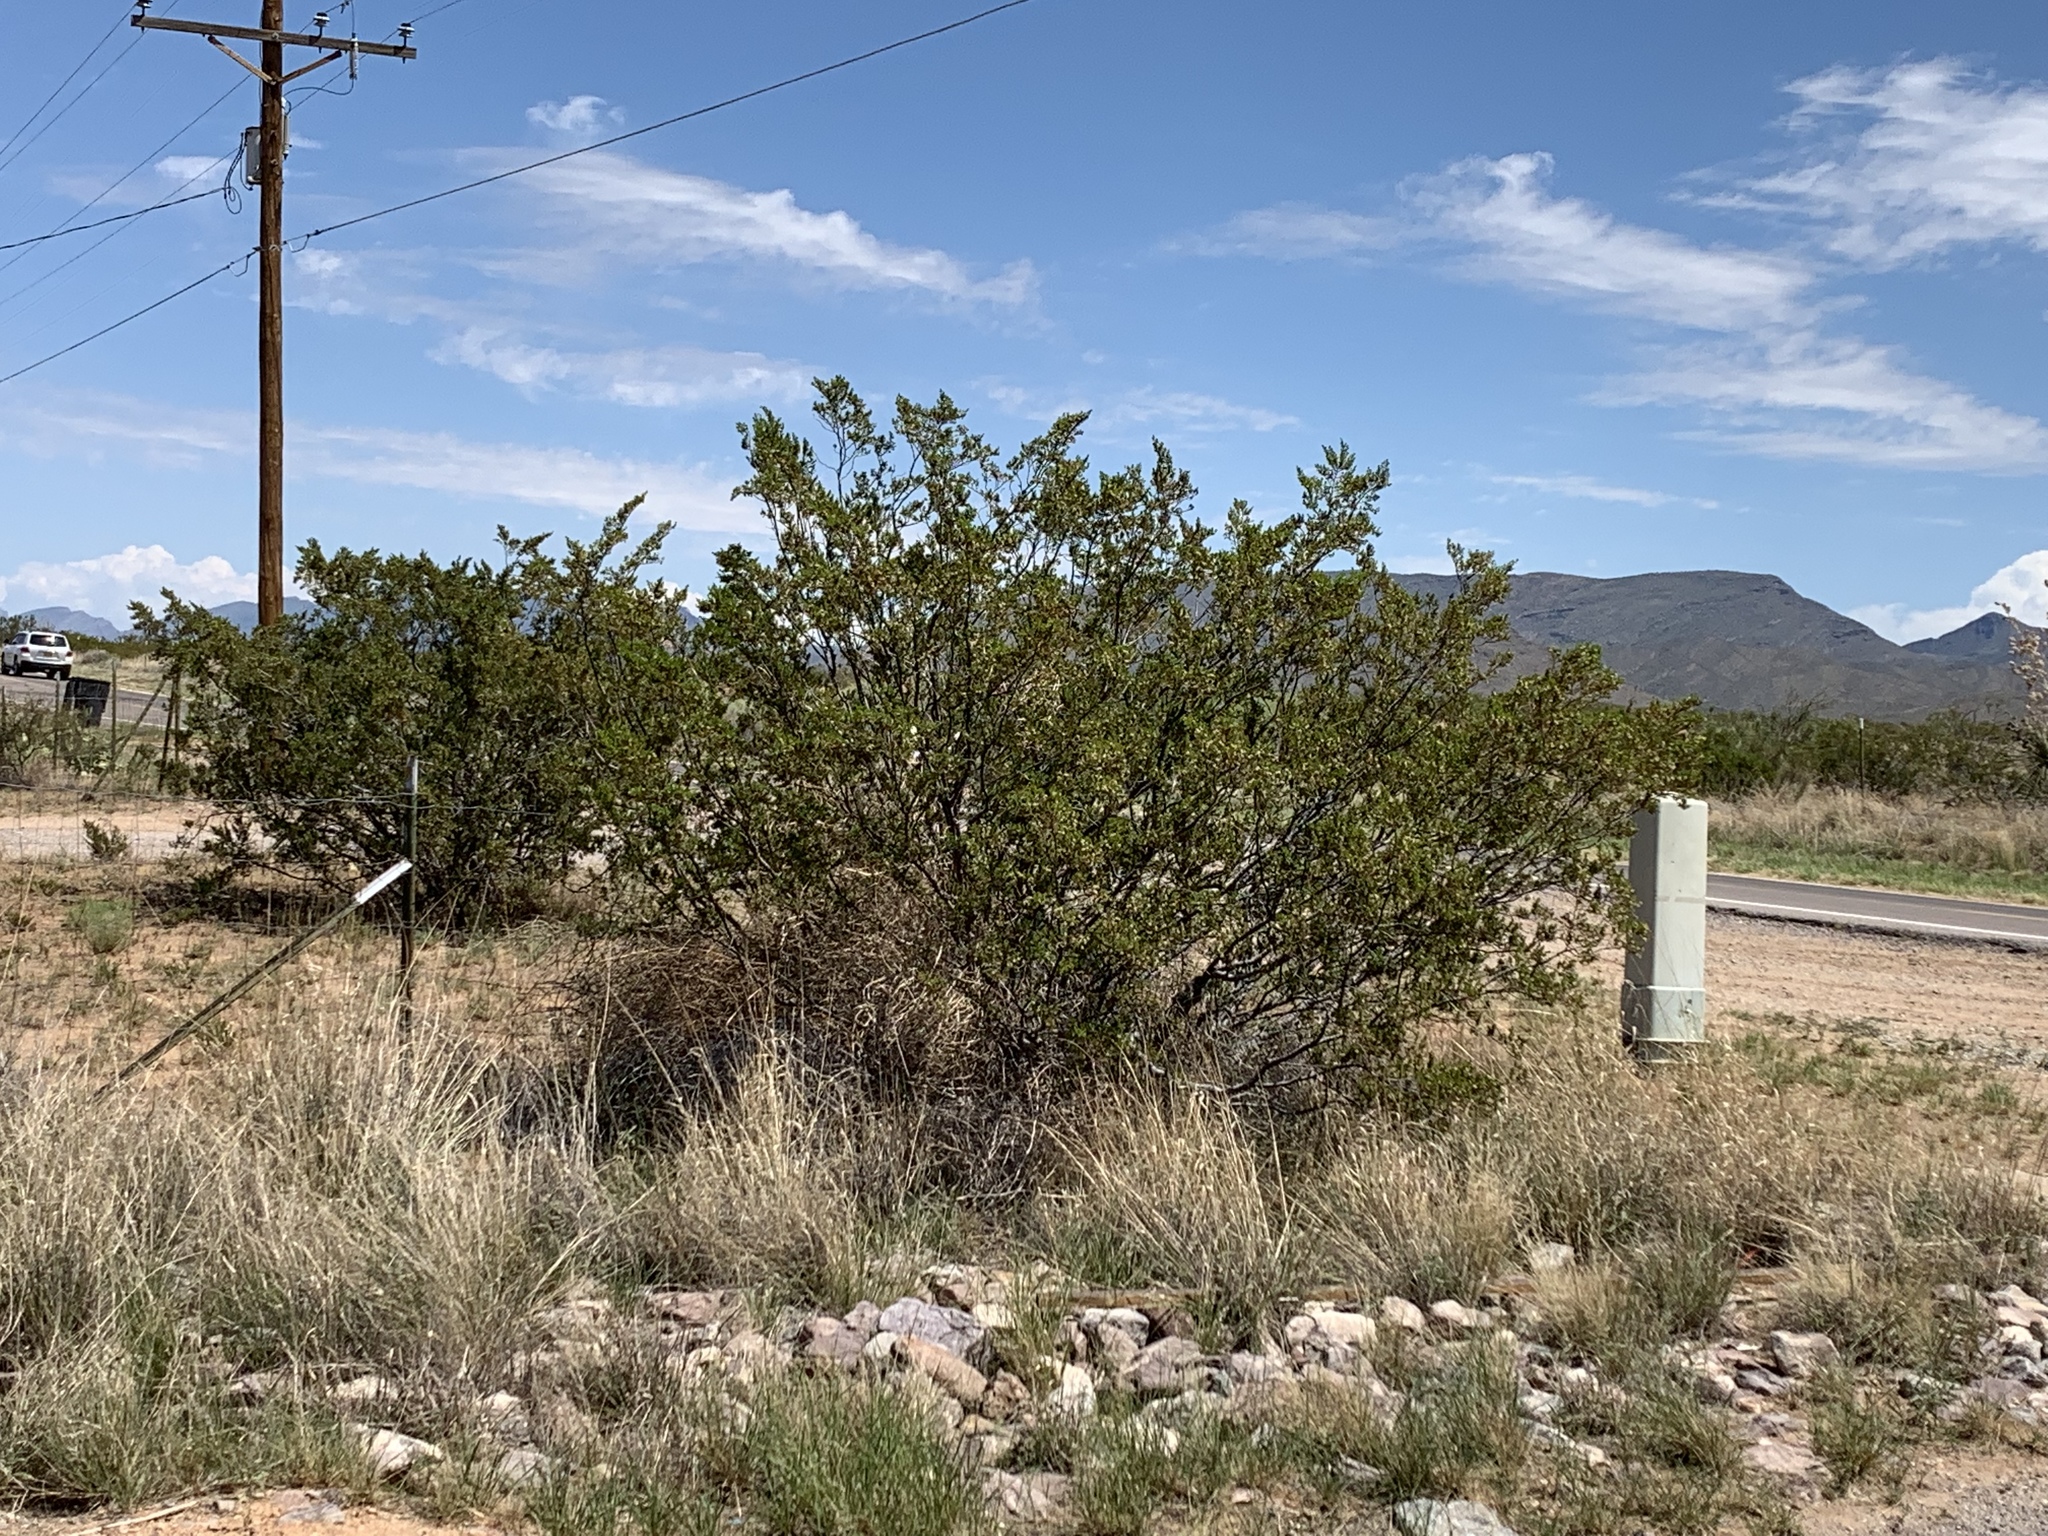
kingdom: Plantae
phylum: Tracheophyta
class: Magnoliopsida
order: Zygophyllales
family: Zygophyllaceae
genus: Larrea
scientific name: Larrea tridentata
